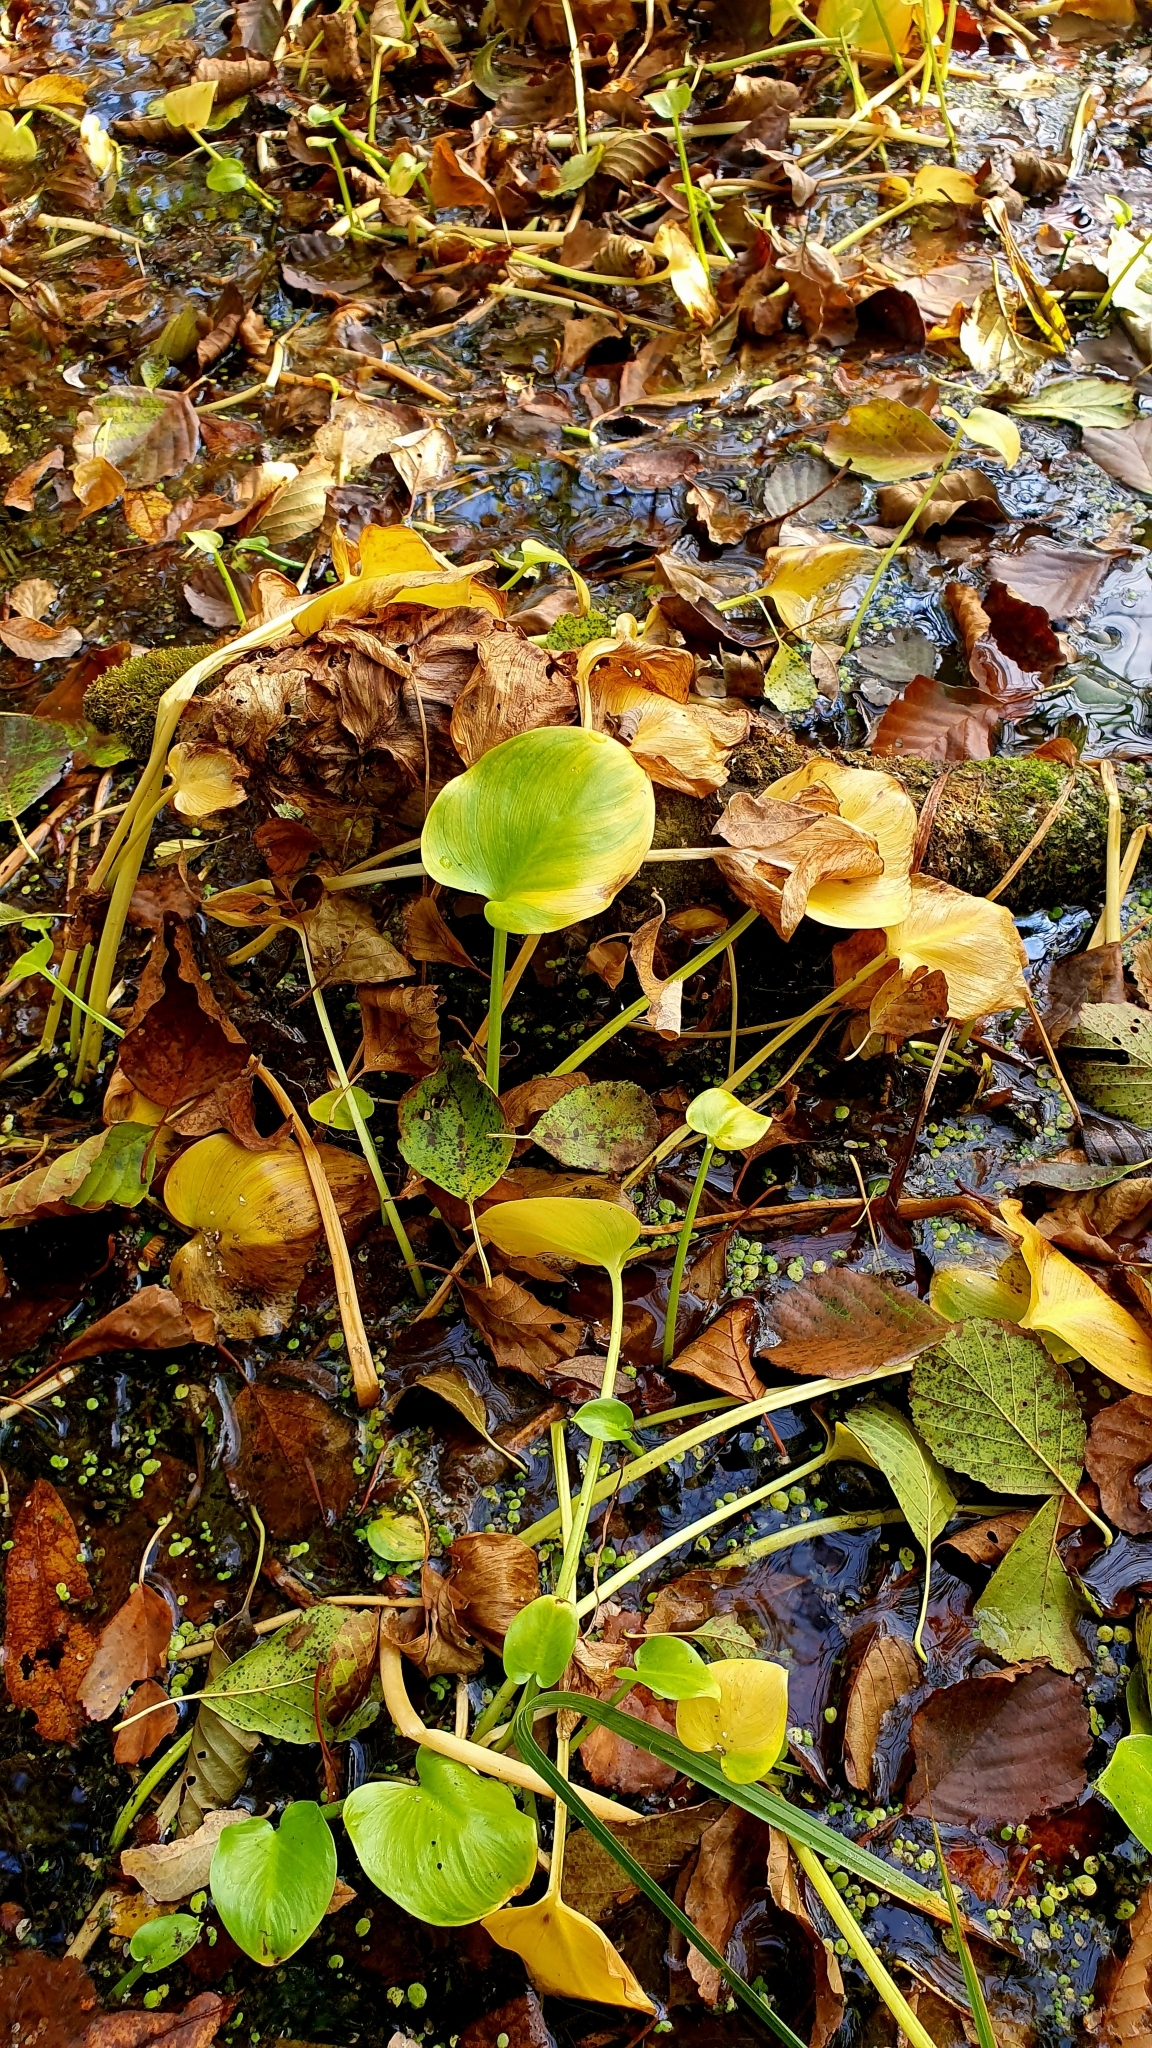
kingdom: Plantae
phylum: Tracheophyta
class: Liliopsida
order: Alismatales
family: Araceae
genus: Calla
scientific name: Calla palustris
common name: Bog arum
